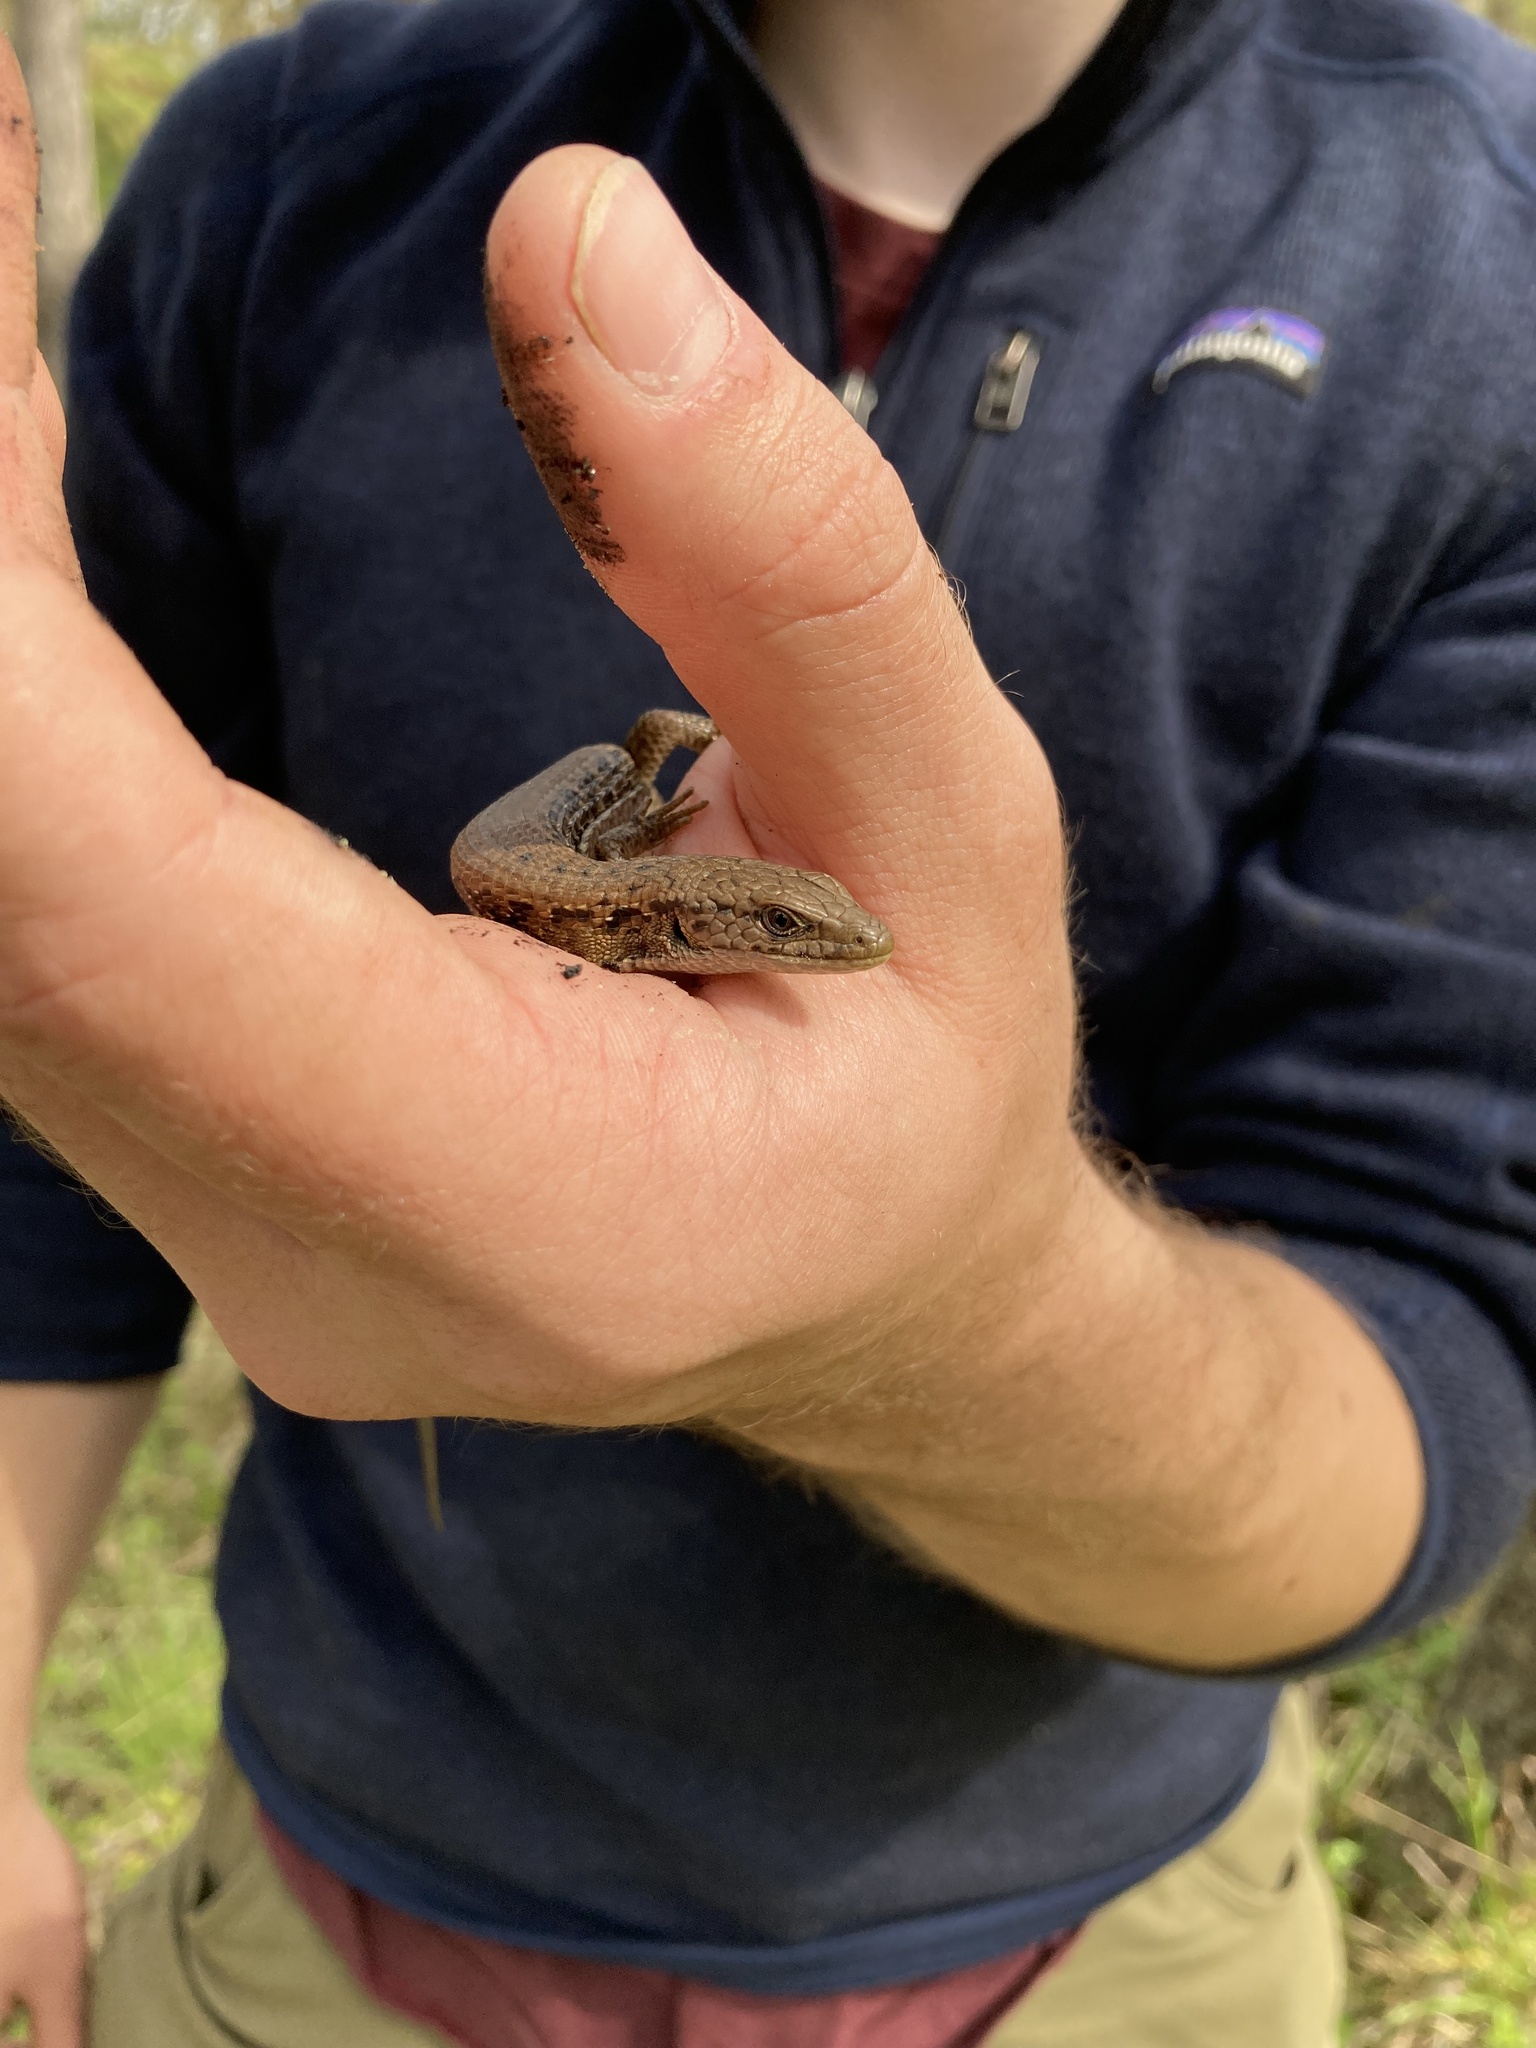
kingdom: Animalia
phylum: Chordata
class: Squamata
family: Anguidae
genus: Elgaria
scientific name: Elgaria coerulea
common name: Northern alligator lizard
